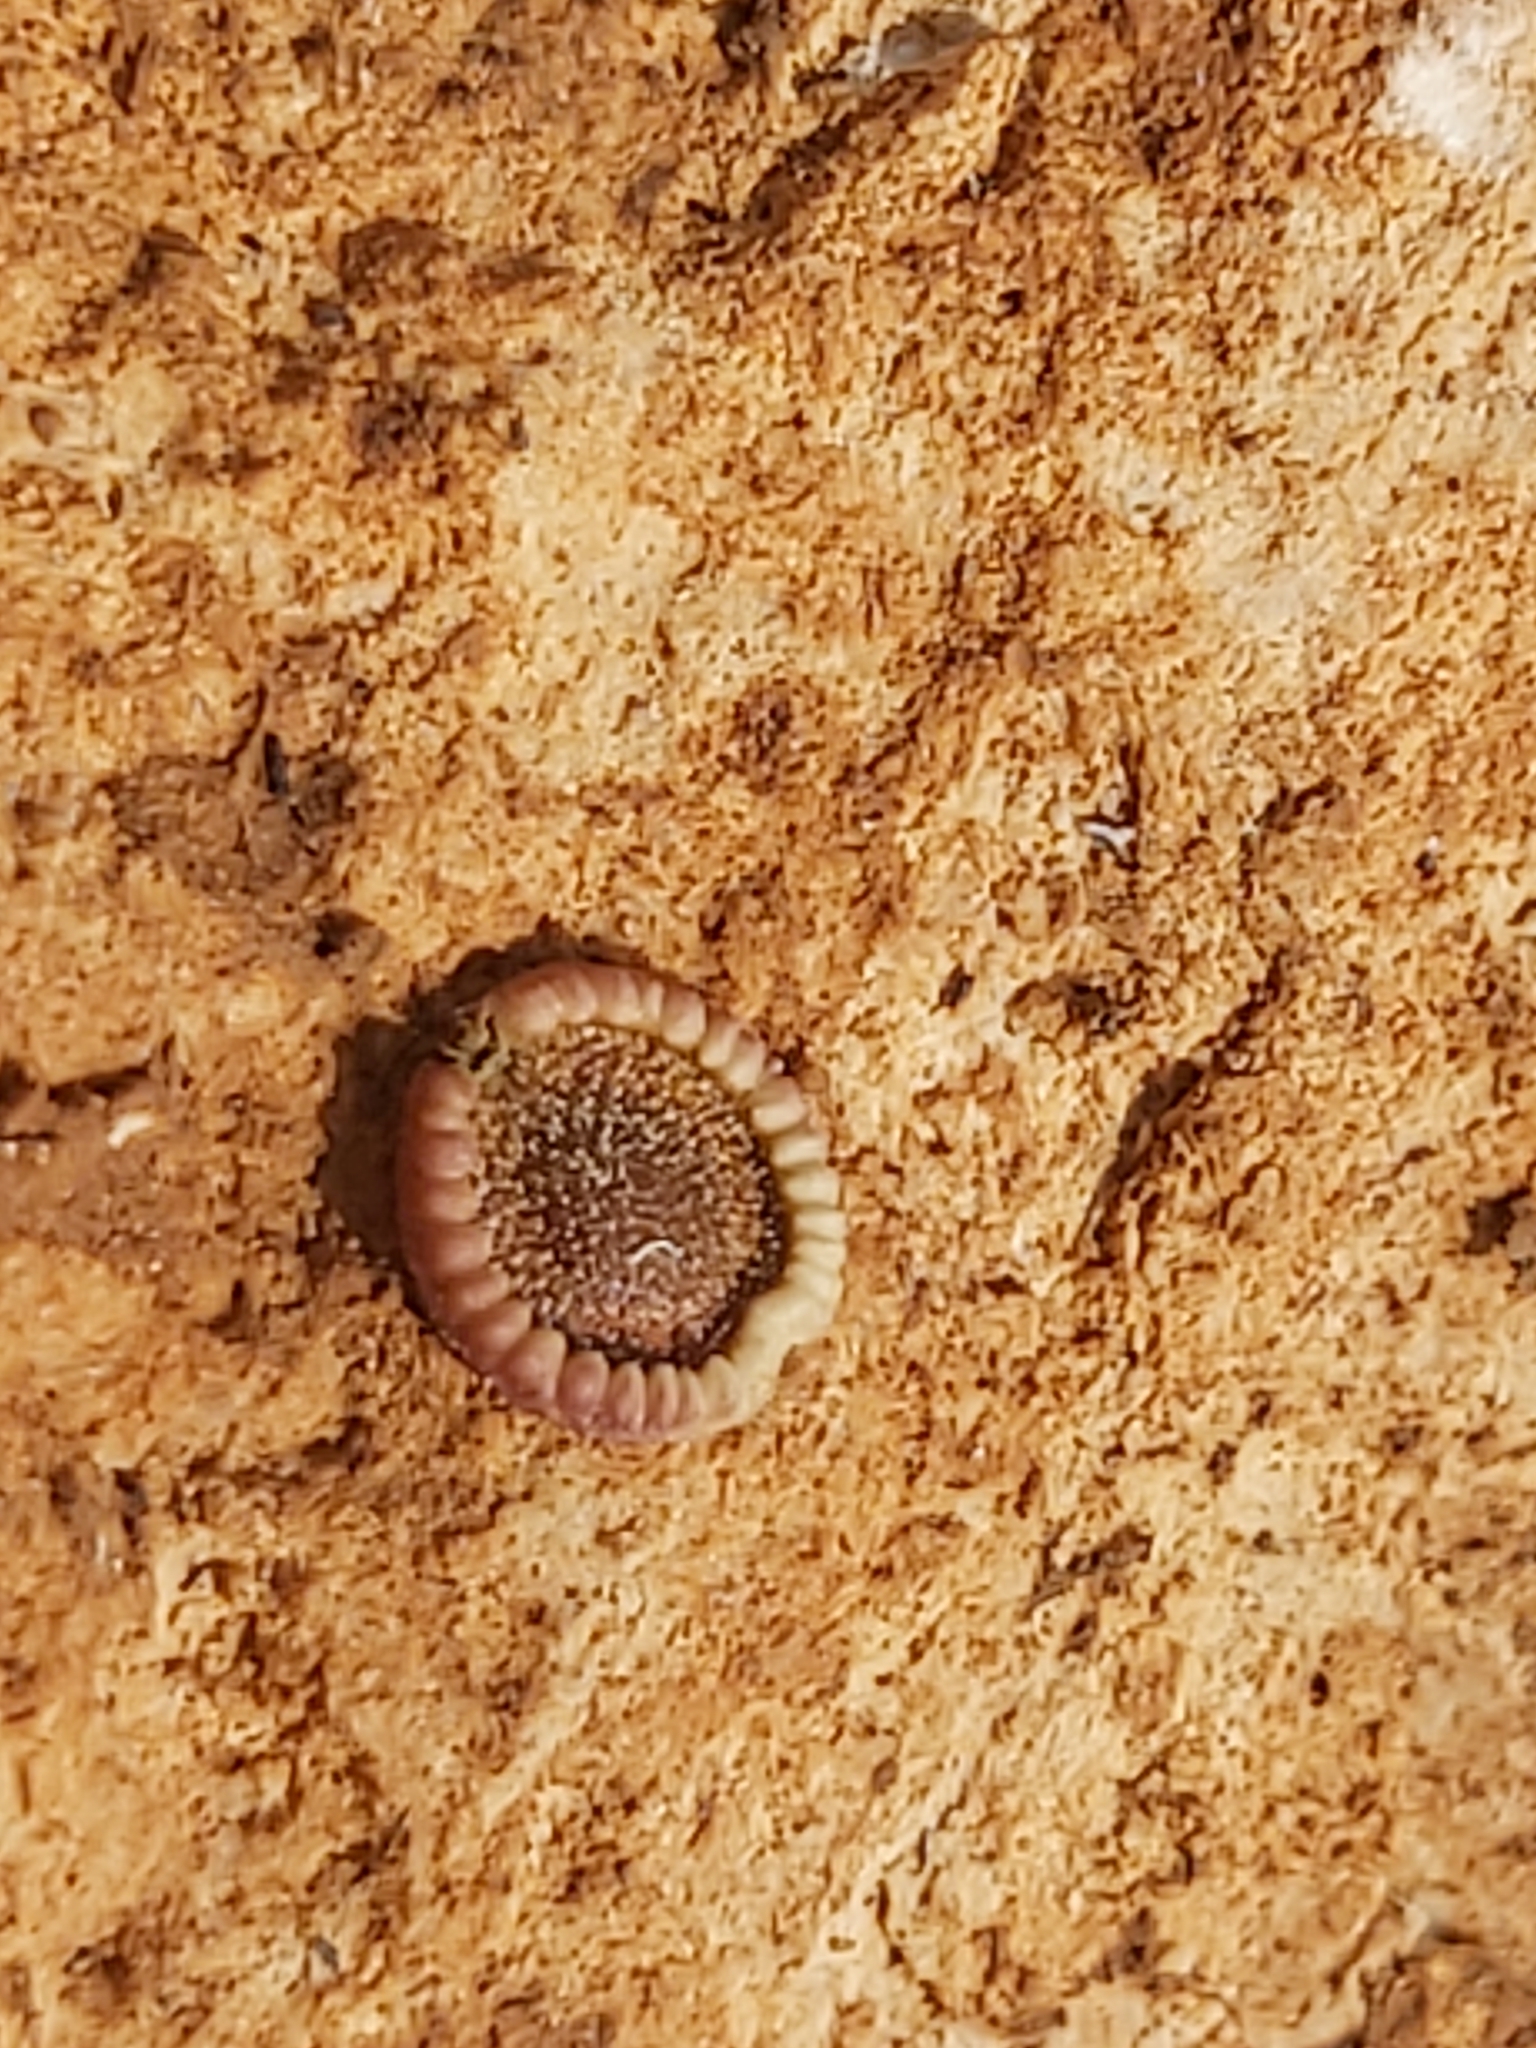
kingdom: Plantae
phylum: Tracheophyta
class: Magnoliopsida
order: Apiales
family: Apiaceae
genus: Tordylium
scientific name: Tordylium apulum
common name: Mediterranean hartwort
